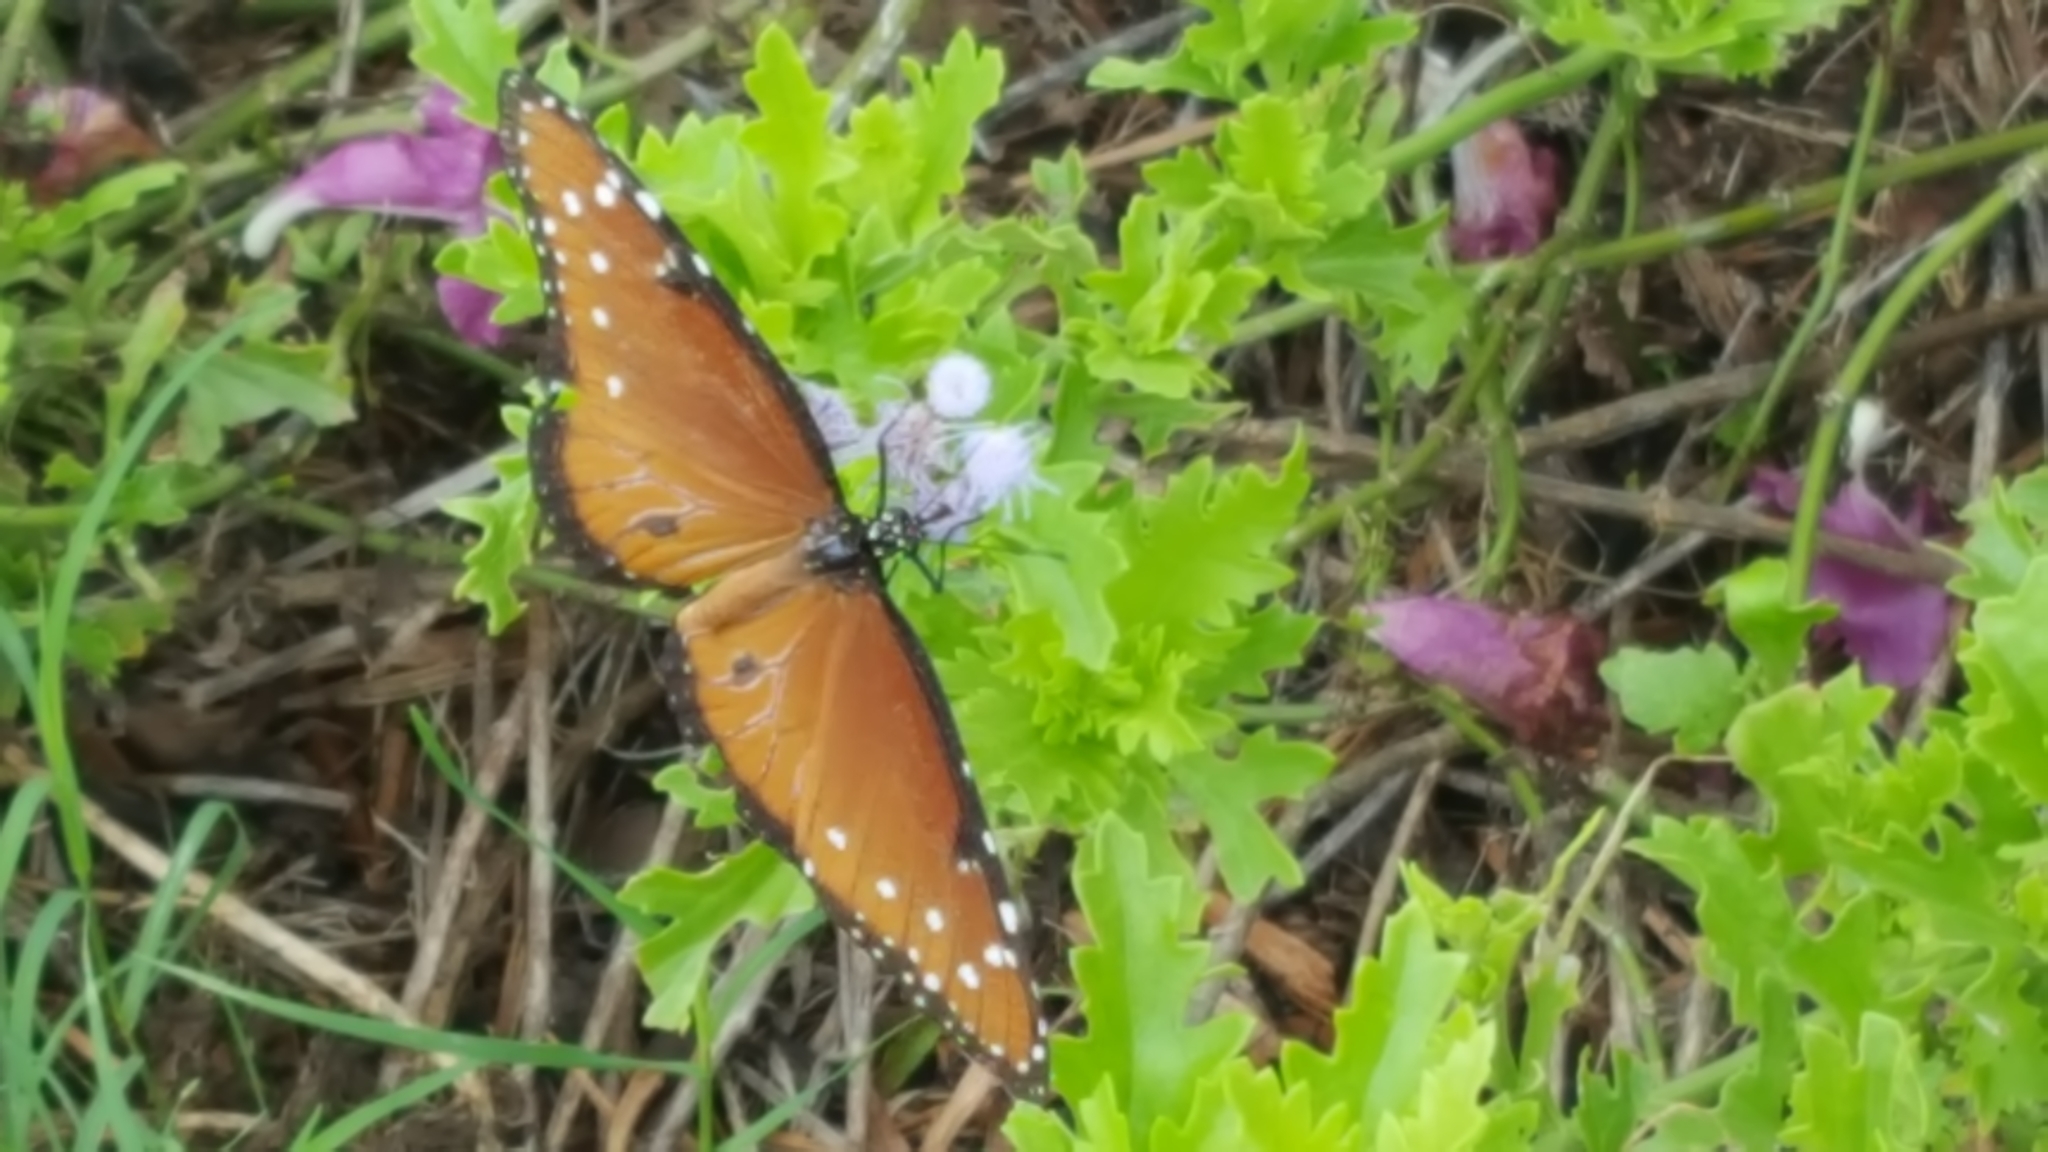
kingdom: Animalia
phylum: Arthropoda
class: Insecta
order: Lepidoptera
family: Nymphalidae
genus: Danaus
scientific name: Danaus gilippus
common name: Queen
